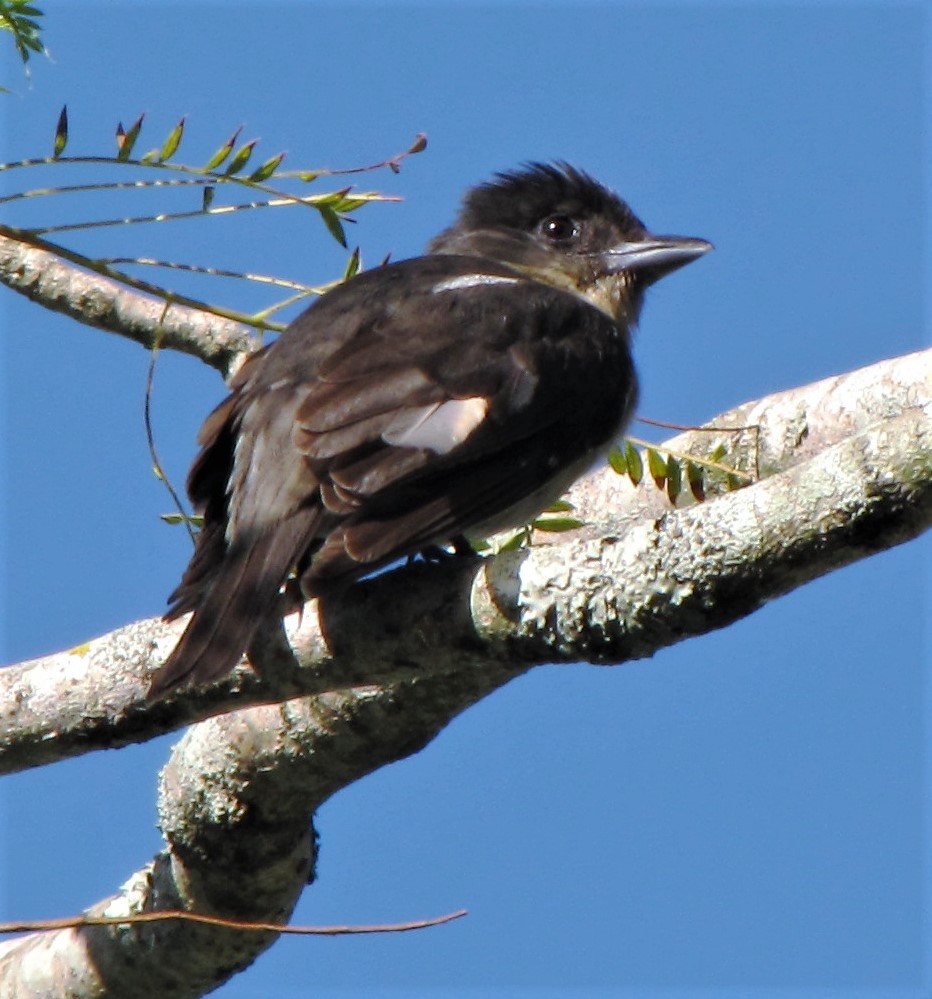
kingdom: Animalia
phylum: Chordata
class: Aves
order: Passeriformes
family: Cotingidae
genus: Pachyramphus
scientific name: Pachyramphus validus
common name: Crested becard
